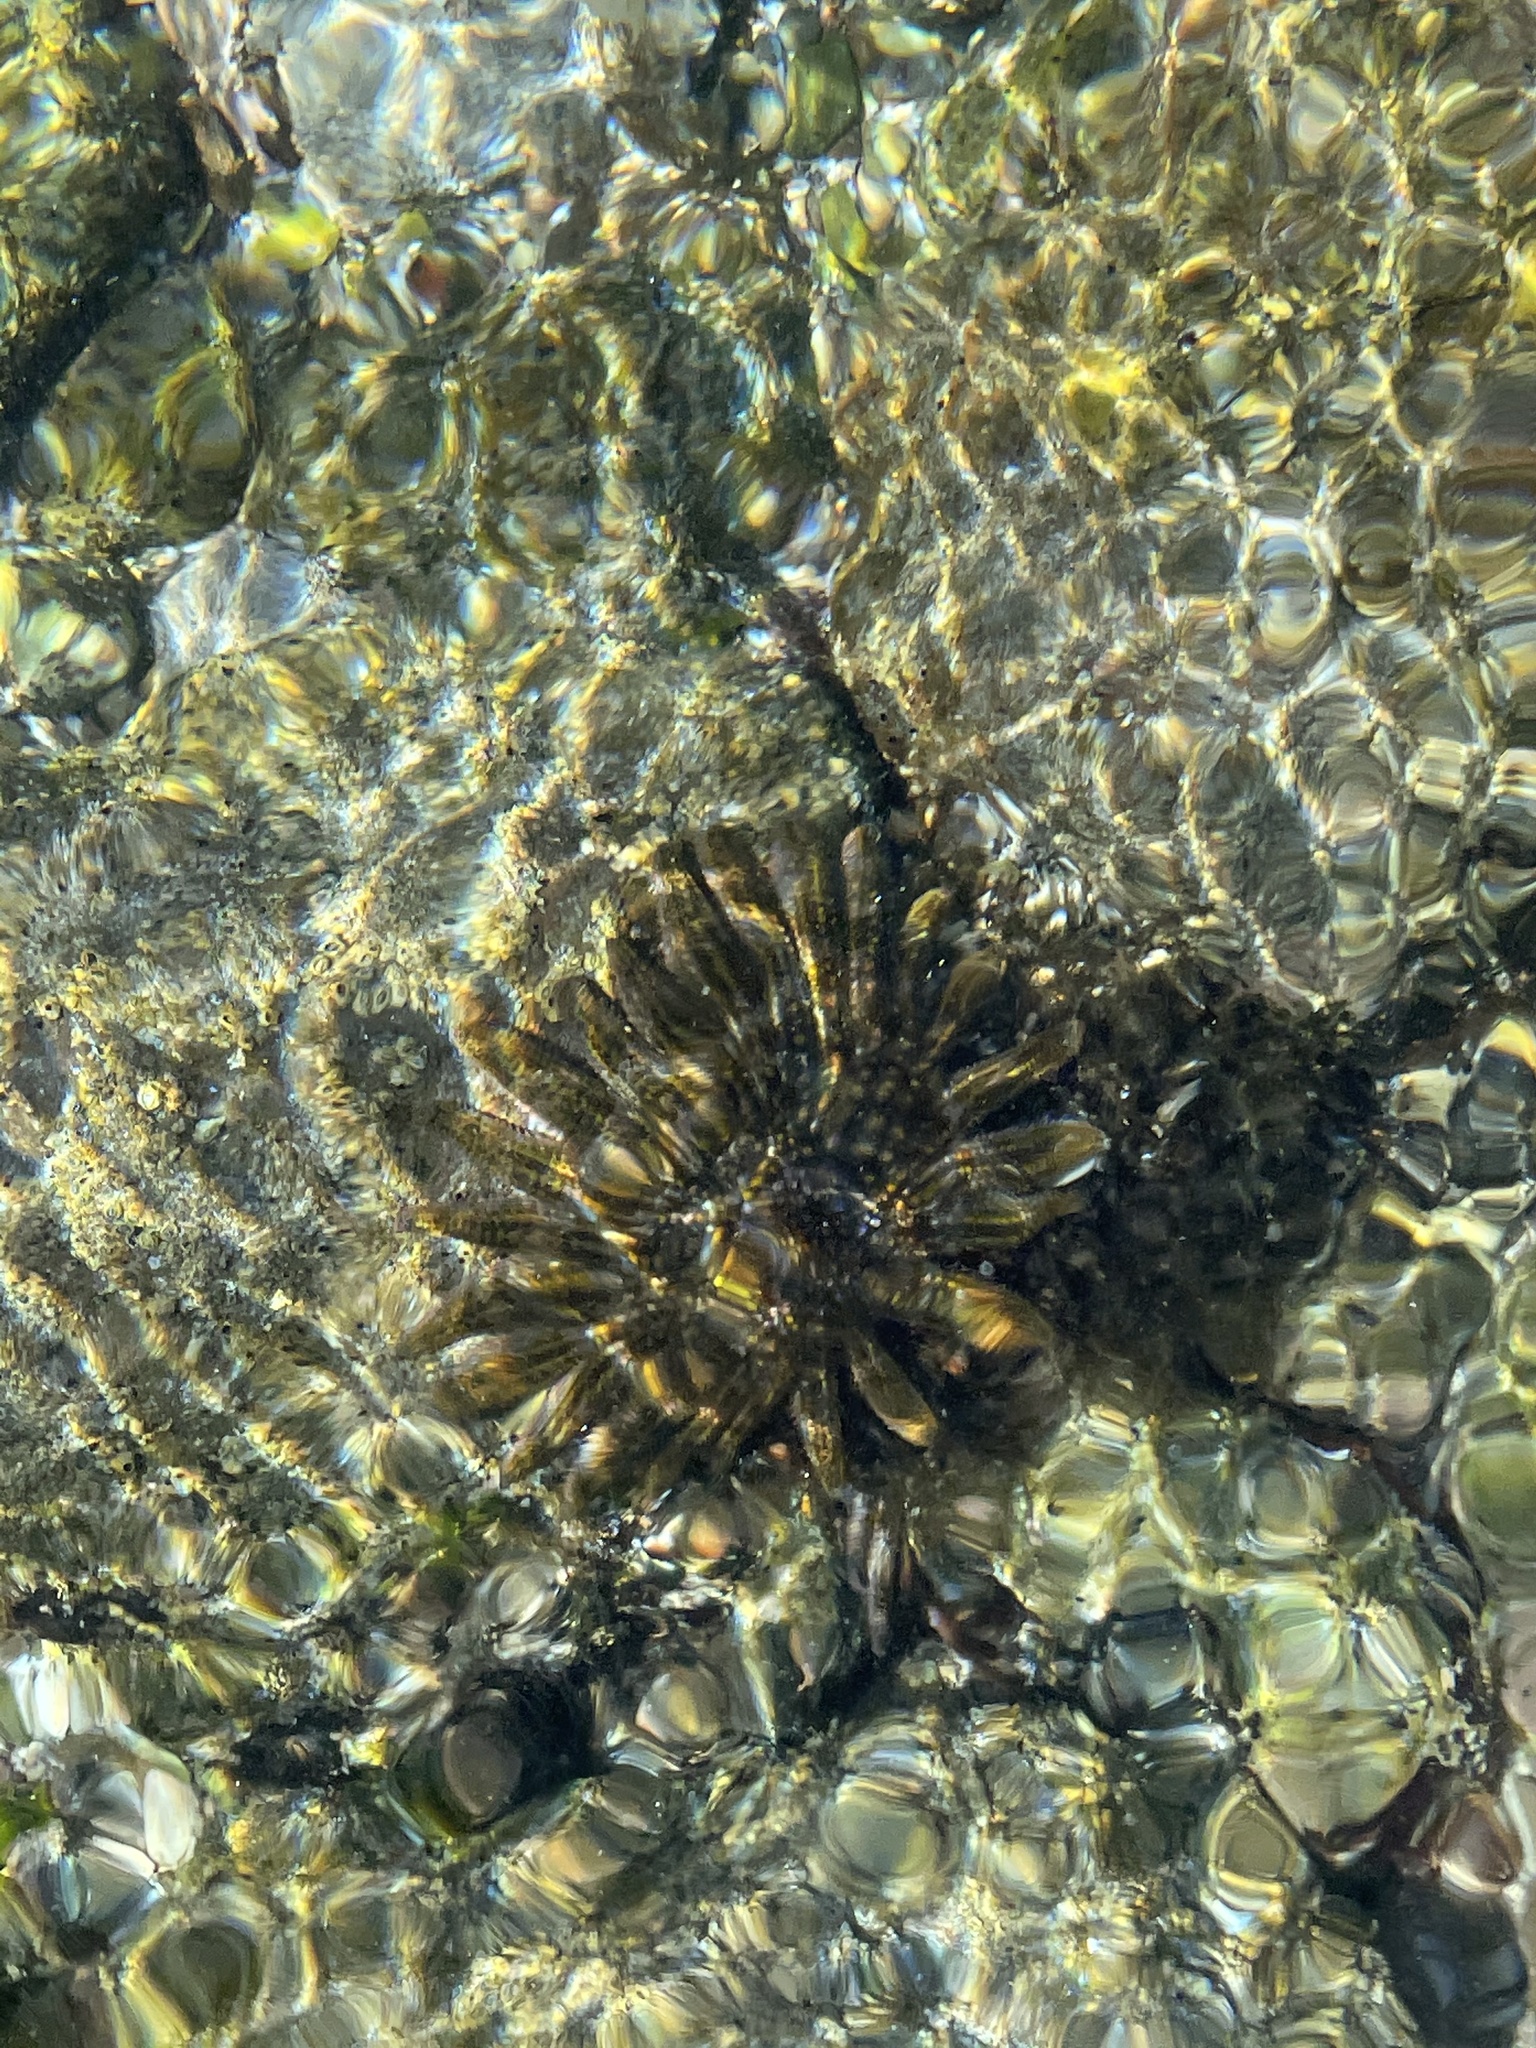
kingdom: Animalia
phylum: Echinodermata
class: Asteroidea
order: Forcipulatida
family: Heliasteridae
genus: Heliaster
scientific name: Heliaster kubiniji
